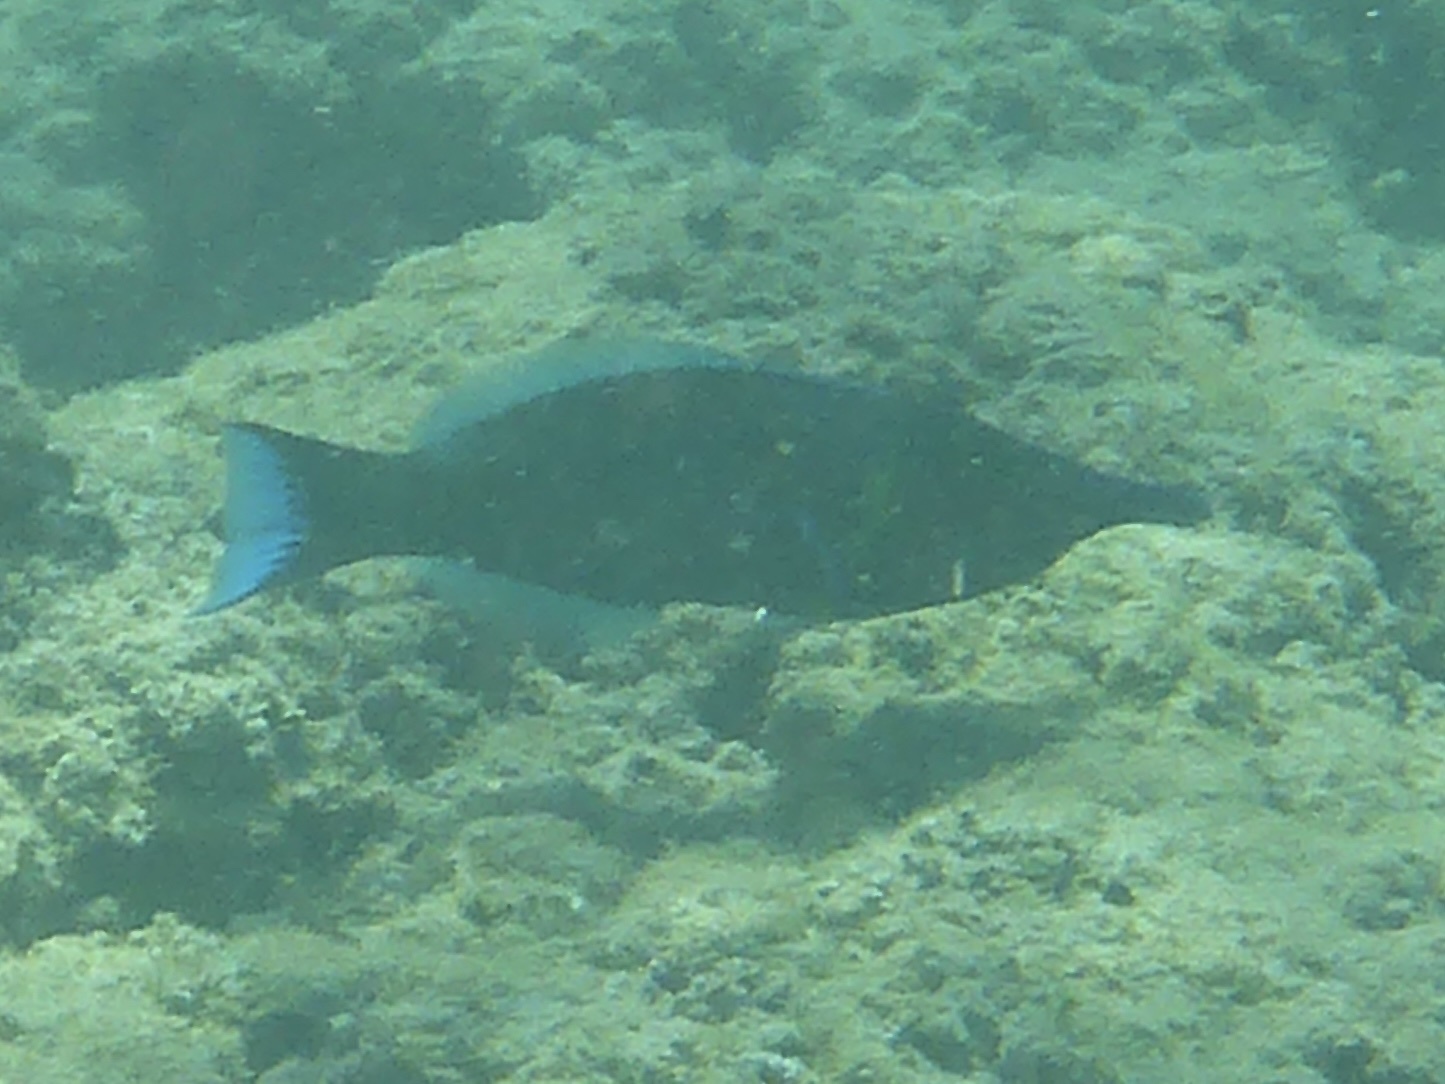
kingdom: Animalia
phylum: Chordata
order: Perciformes
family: Labridae
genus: Gomphosus
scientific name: Gomphosus varius
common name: Bird wrasse
